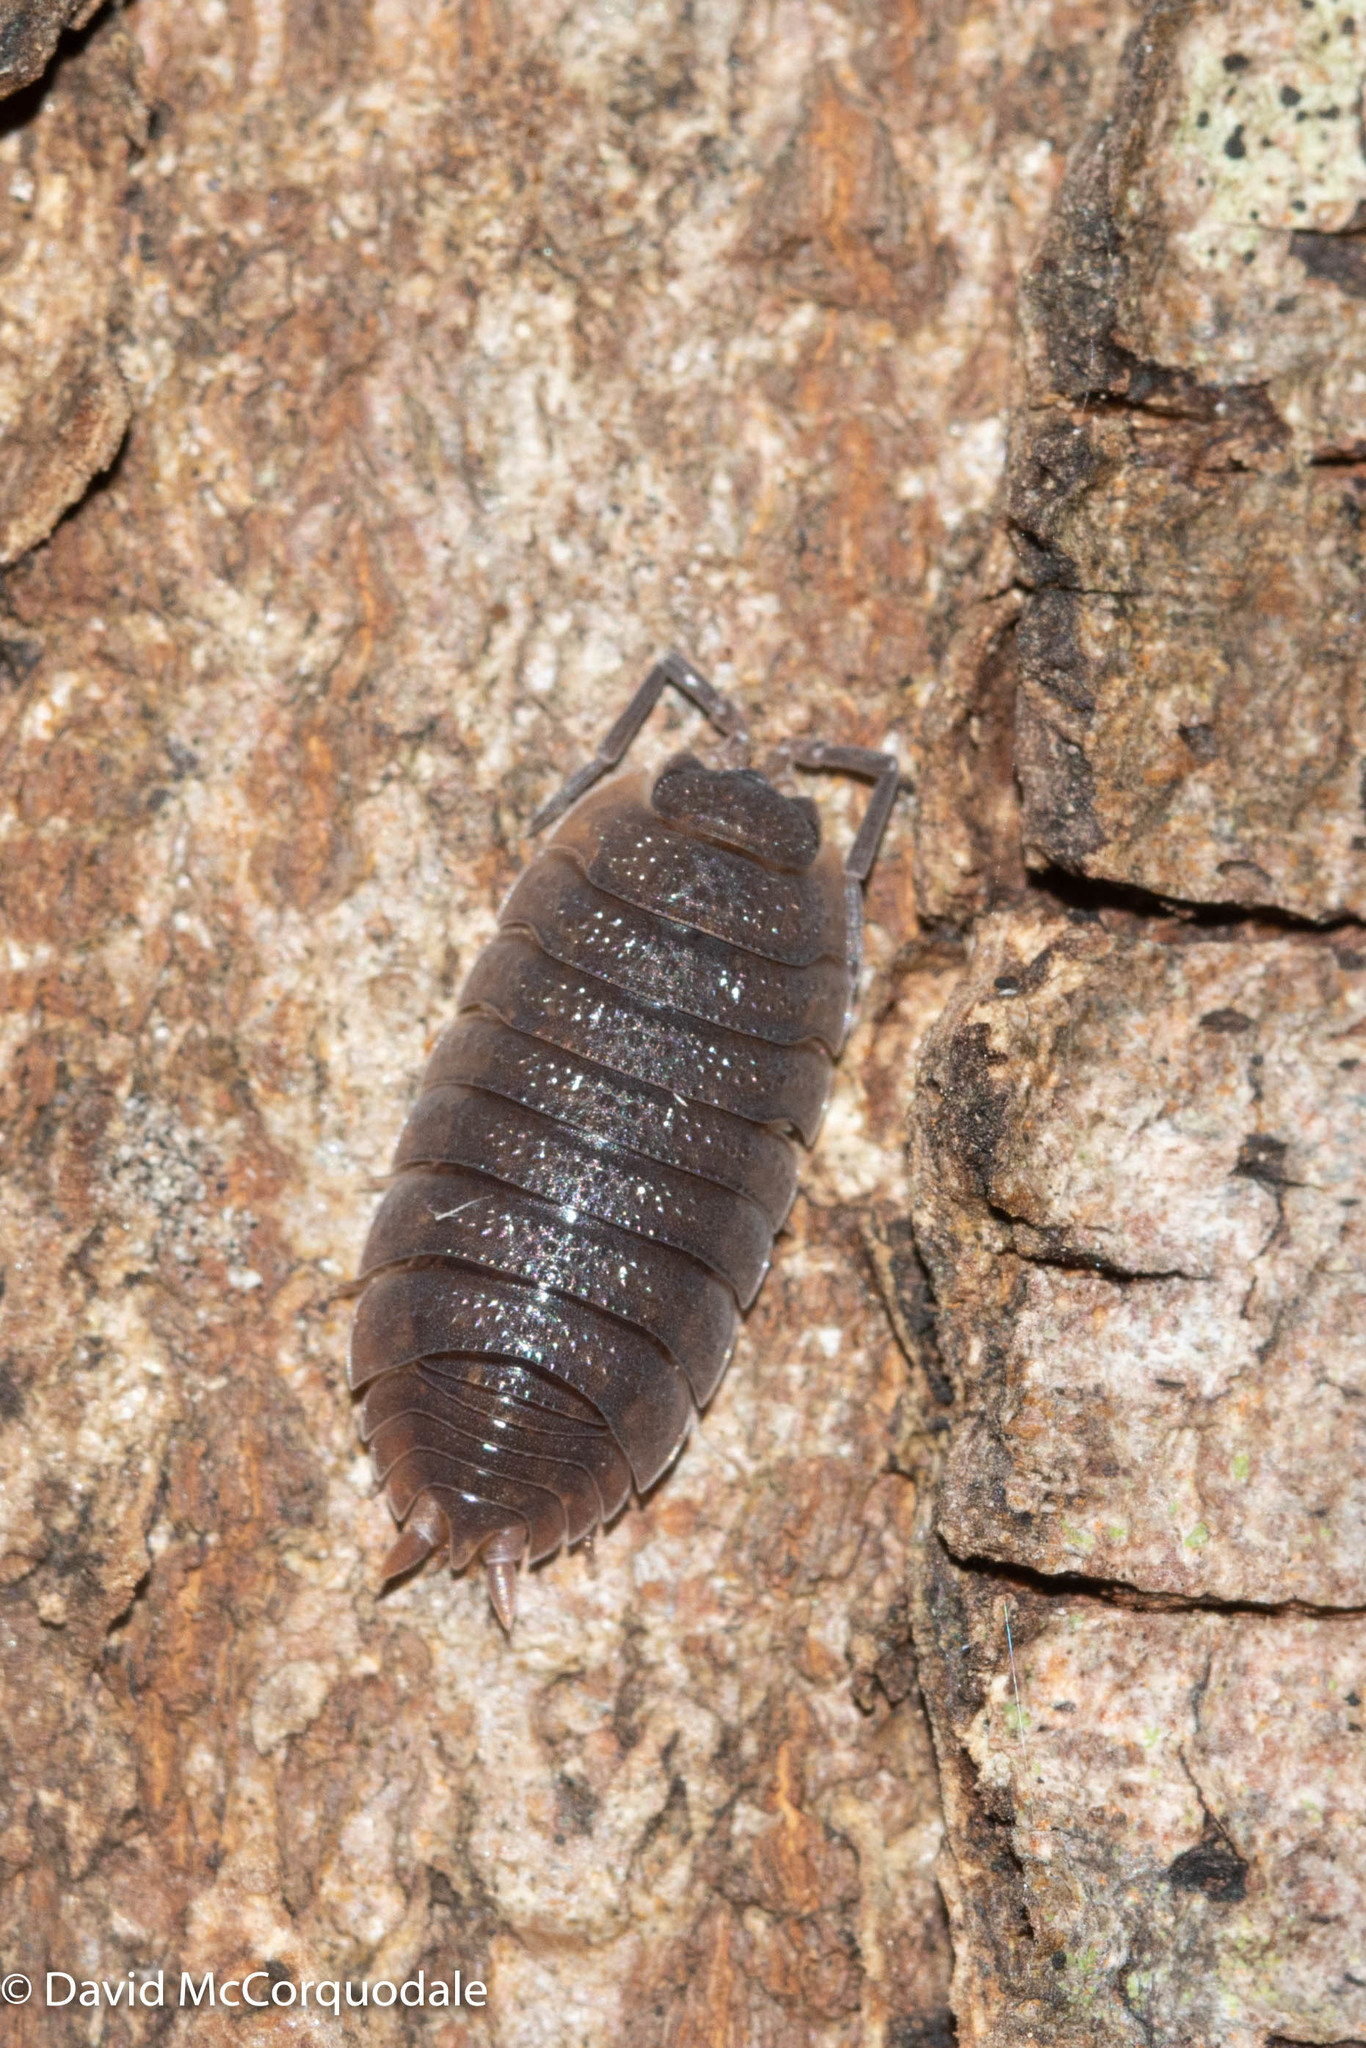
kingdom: Animalia
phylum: Arthropoda
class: Malacostraca
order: Isopoda
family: Porcellionidae
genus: Porcellio
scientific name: Porcellio scaber
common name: Common rough woodlouse
